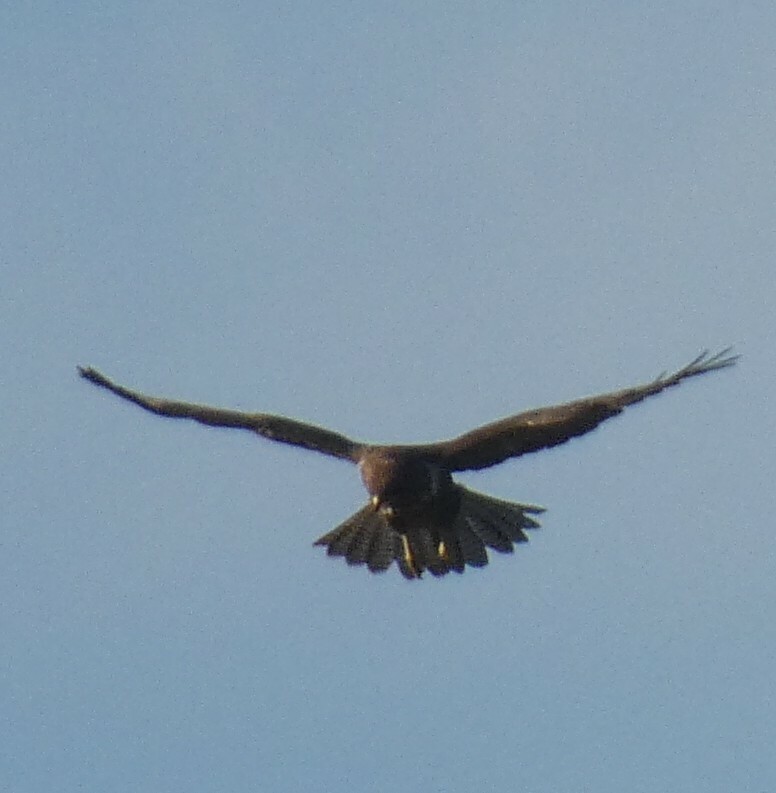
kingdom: Animalia
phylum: Chordata
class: Aves
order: Accipitriformes
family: Accipitridae
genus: Buteo
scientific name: Buteo buteo
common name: Common buzzard
